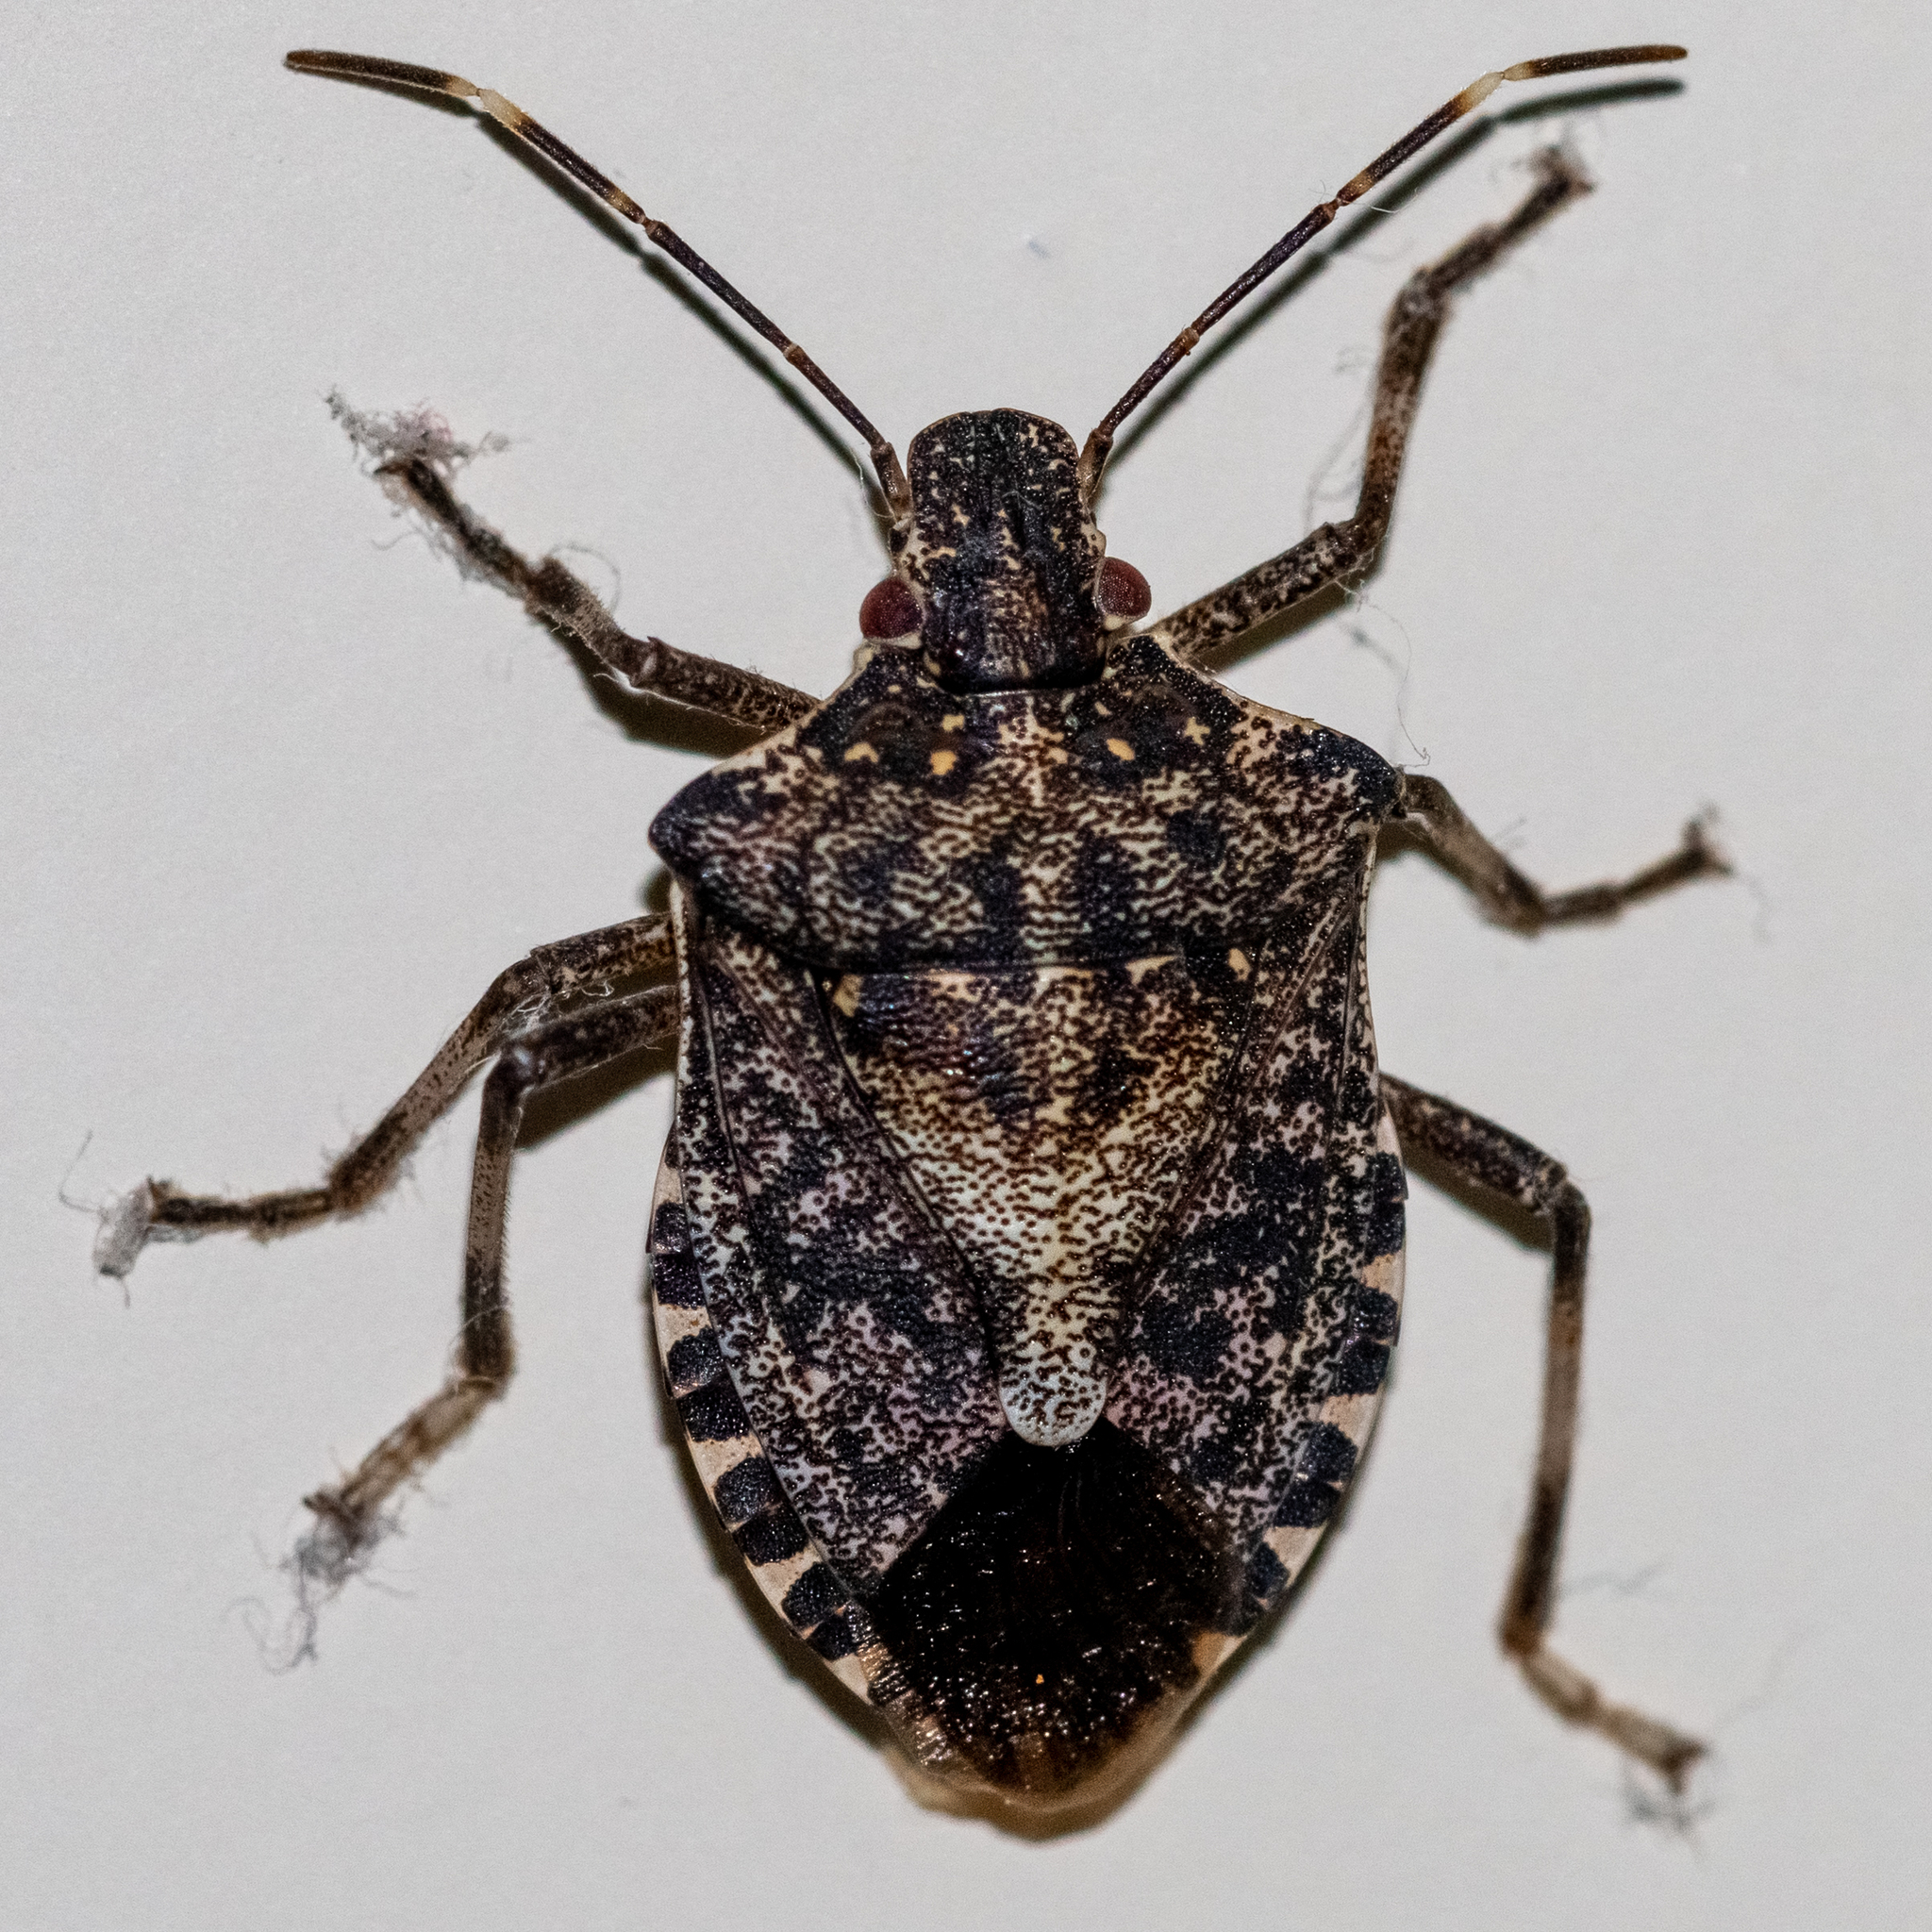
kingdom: Animalia
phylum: Arthropoda
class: Insecta
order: Hemiptera
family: Pentatomidae
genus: Halyomorpha
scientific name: Halyomorpha halys
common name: Brown marmorated stink bug
